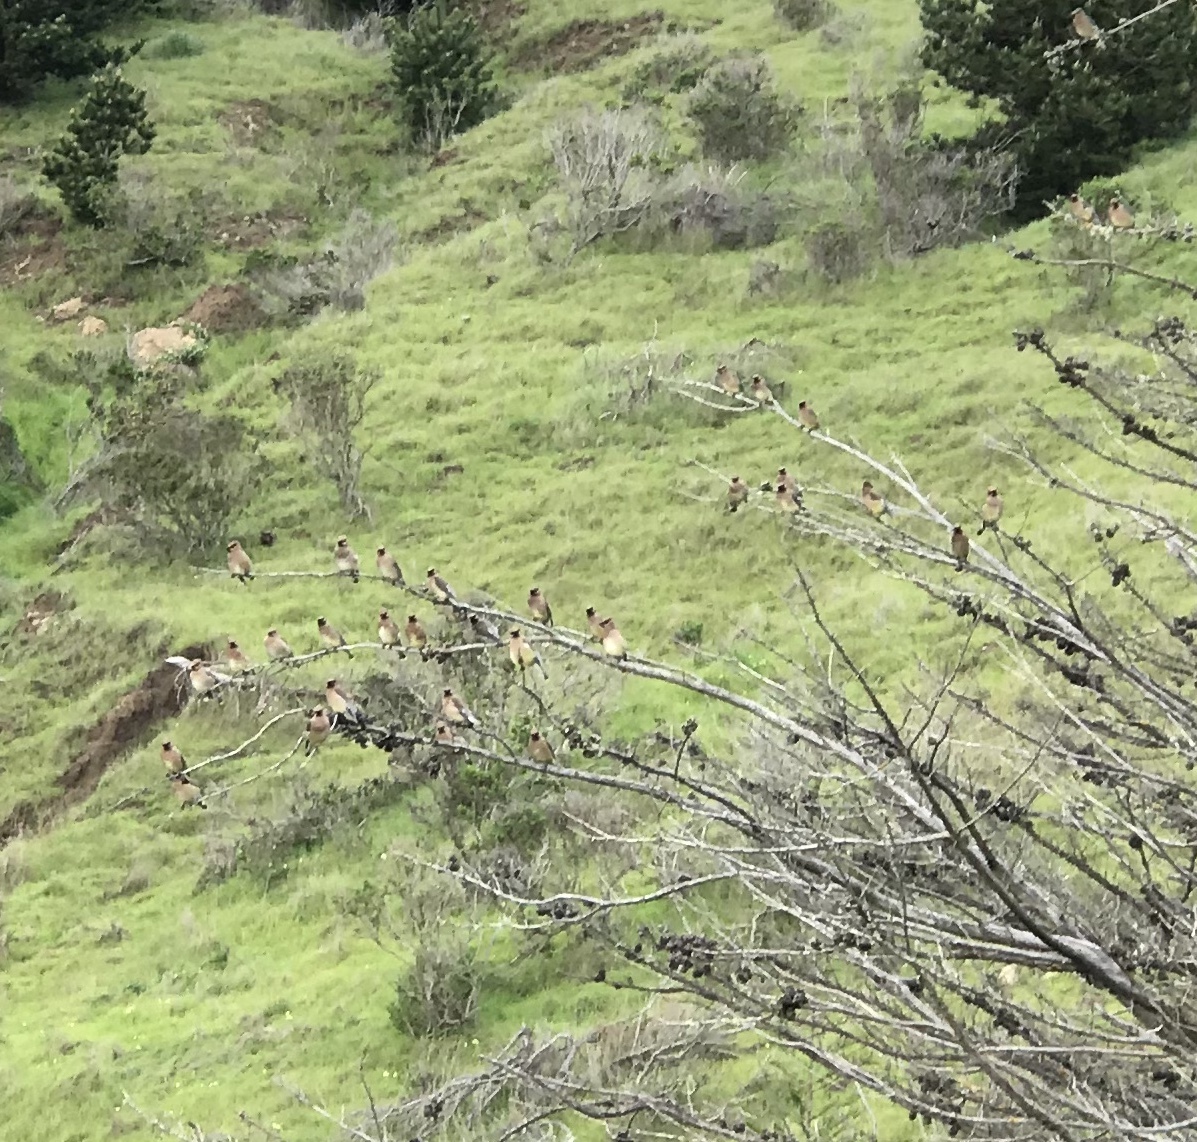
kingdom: Animalia
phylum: Chordata
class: Aves
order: Passeriformes
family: Bombycillidae
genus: Bombycilla
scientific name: Bombycilla cedrorum
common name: Cedar waxwing
